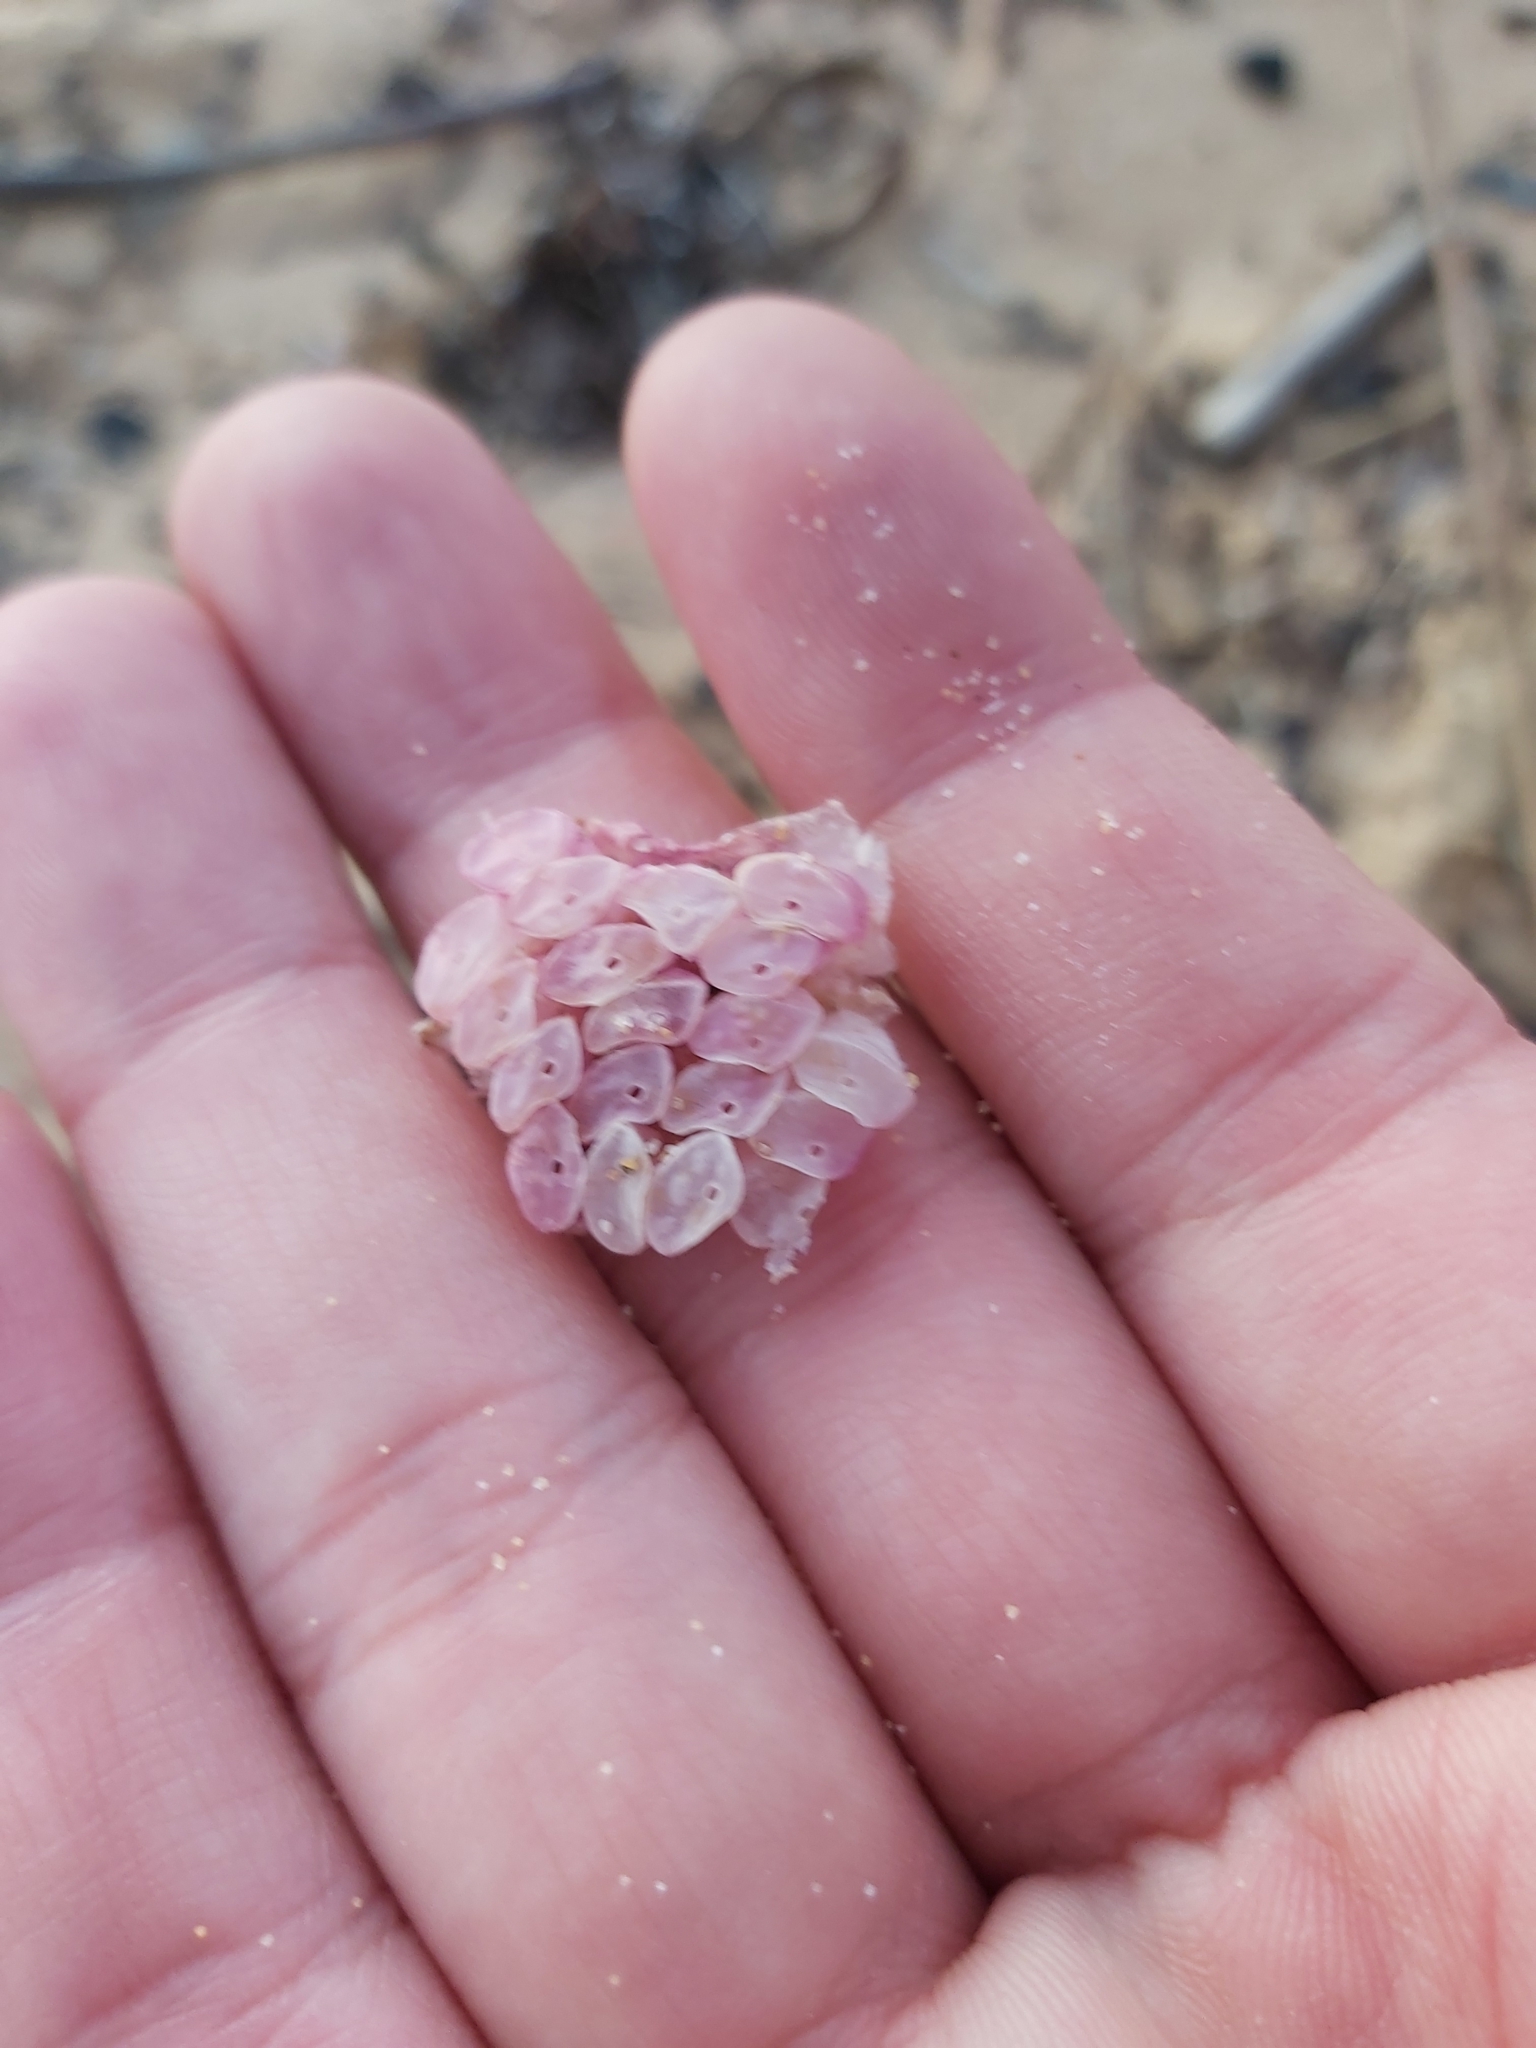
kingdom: Animalia
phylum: Mollusca
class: Gastropoda
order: Neogastropoda
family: Muricidae
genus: Dicathais
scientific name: Dicathais orbita
